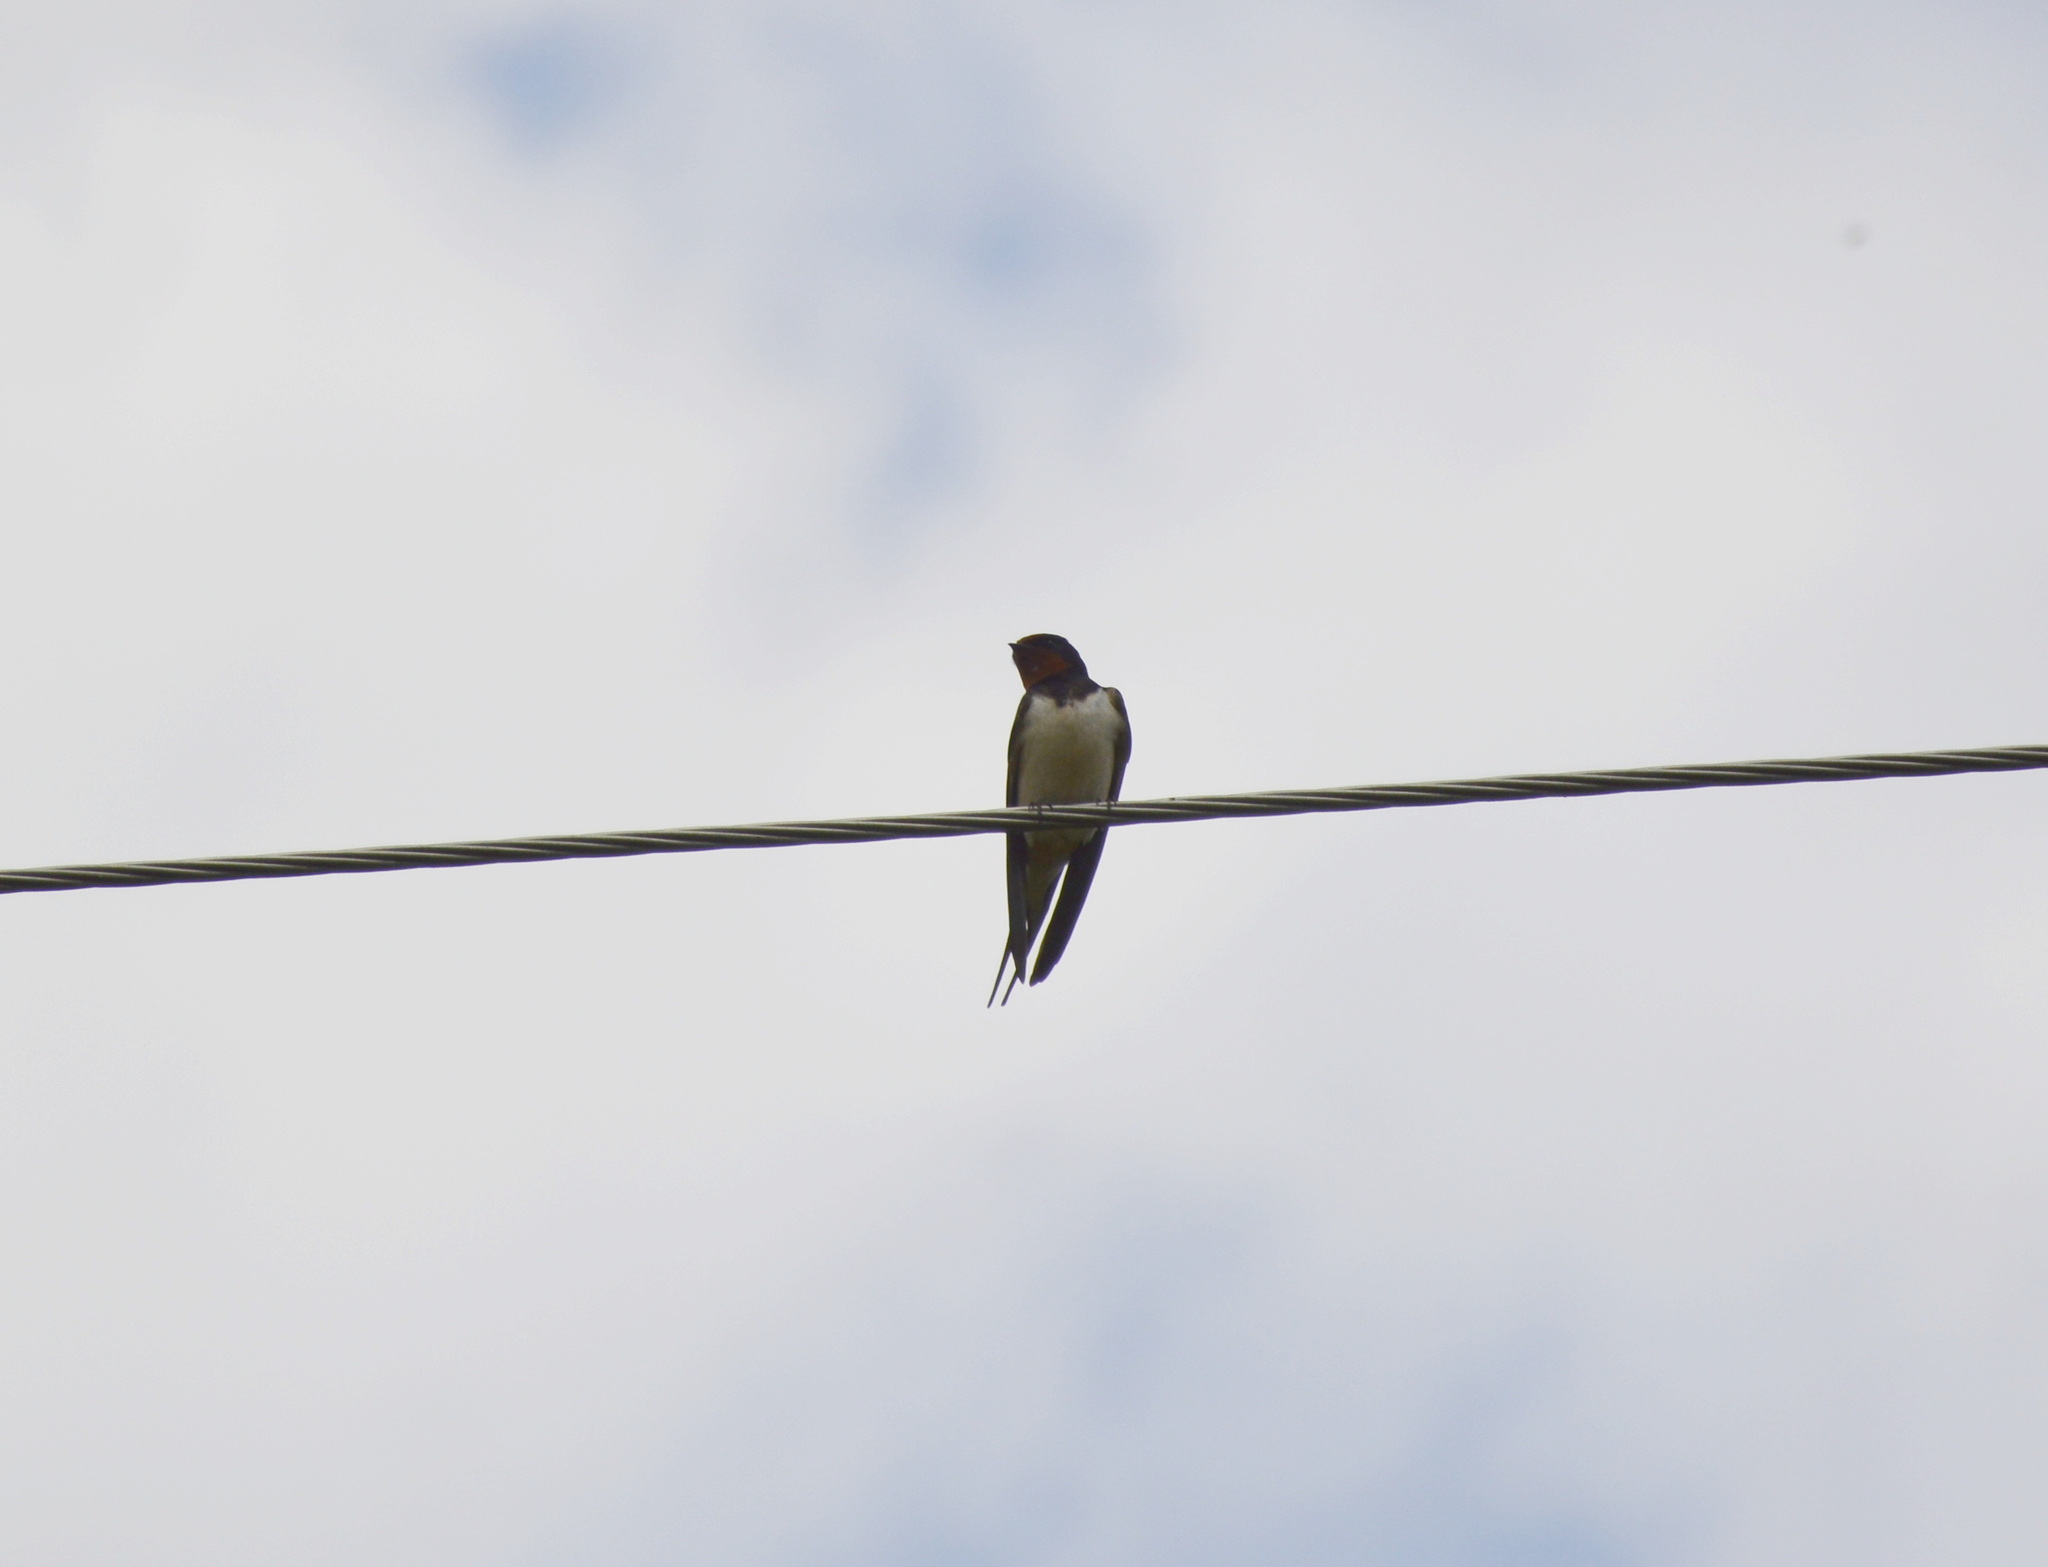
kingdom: Animalia
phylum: Chordata
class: Aves
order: Passeriformes
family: Hirundinidae
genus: Hirundo
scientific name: Hirundo rustica
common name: Barn swallow
